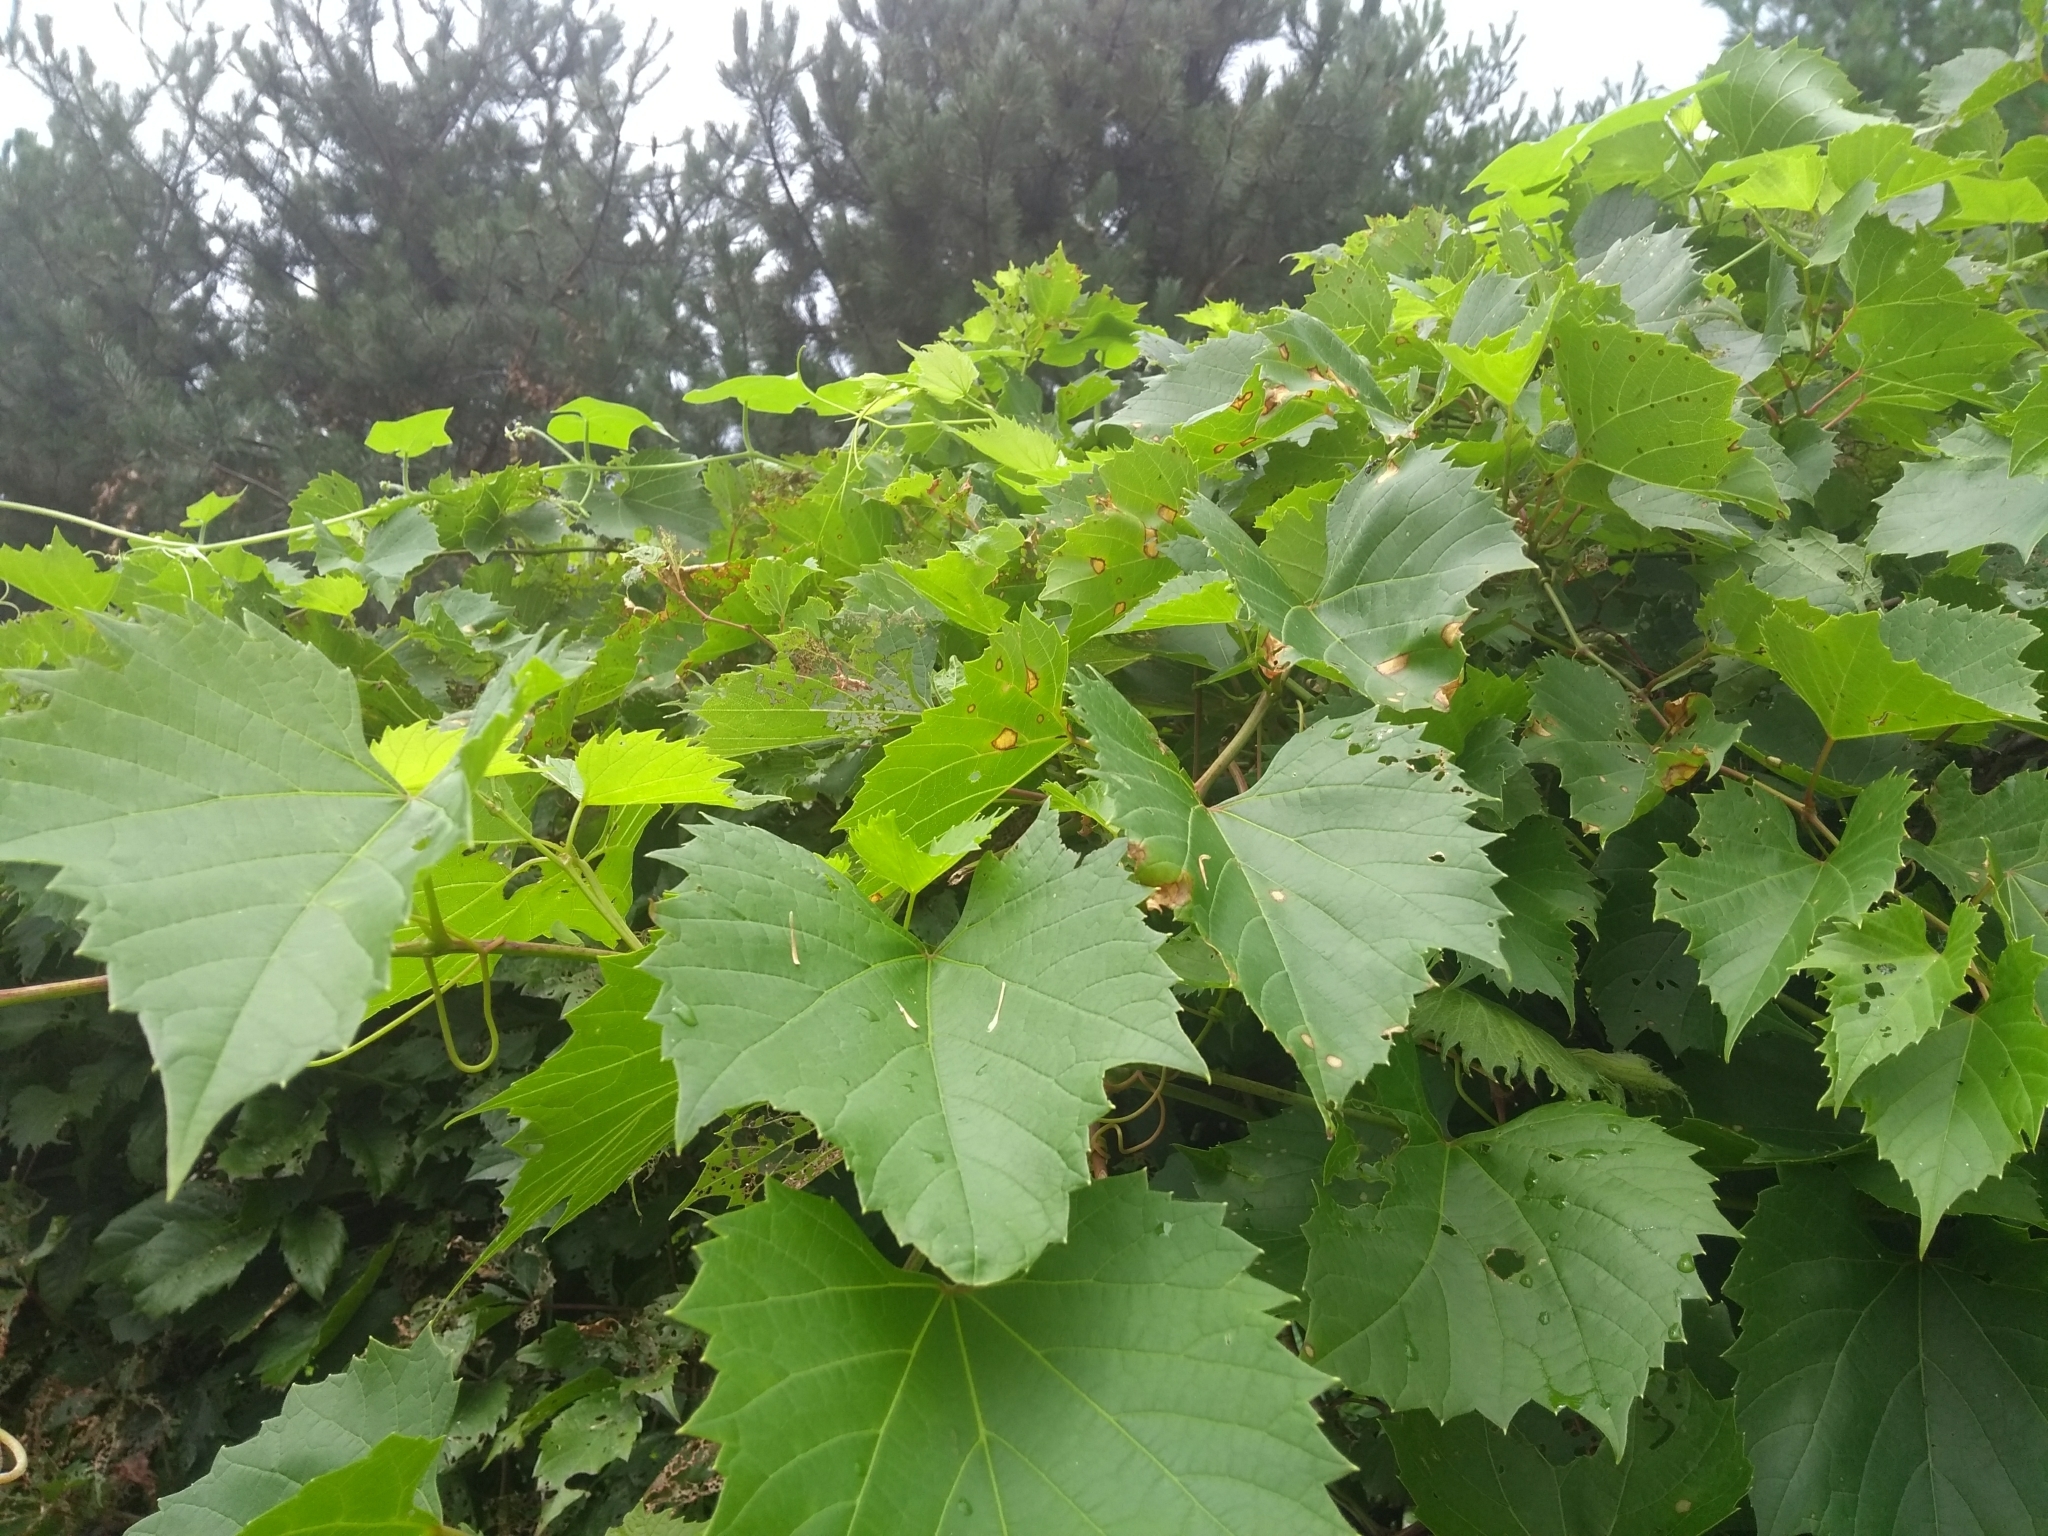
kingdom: Plantae
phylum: Tracheophyta
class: Magnoliopsida
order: Vitales
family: Vitaceae
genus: Vitis
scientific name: Vitis riparia
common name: Frost grape
